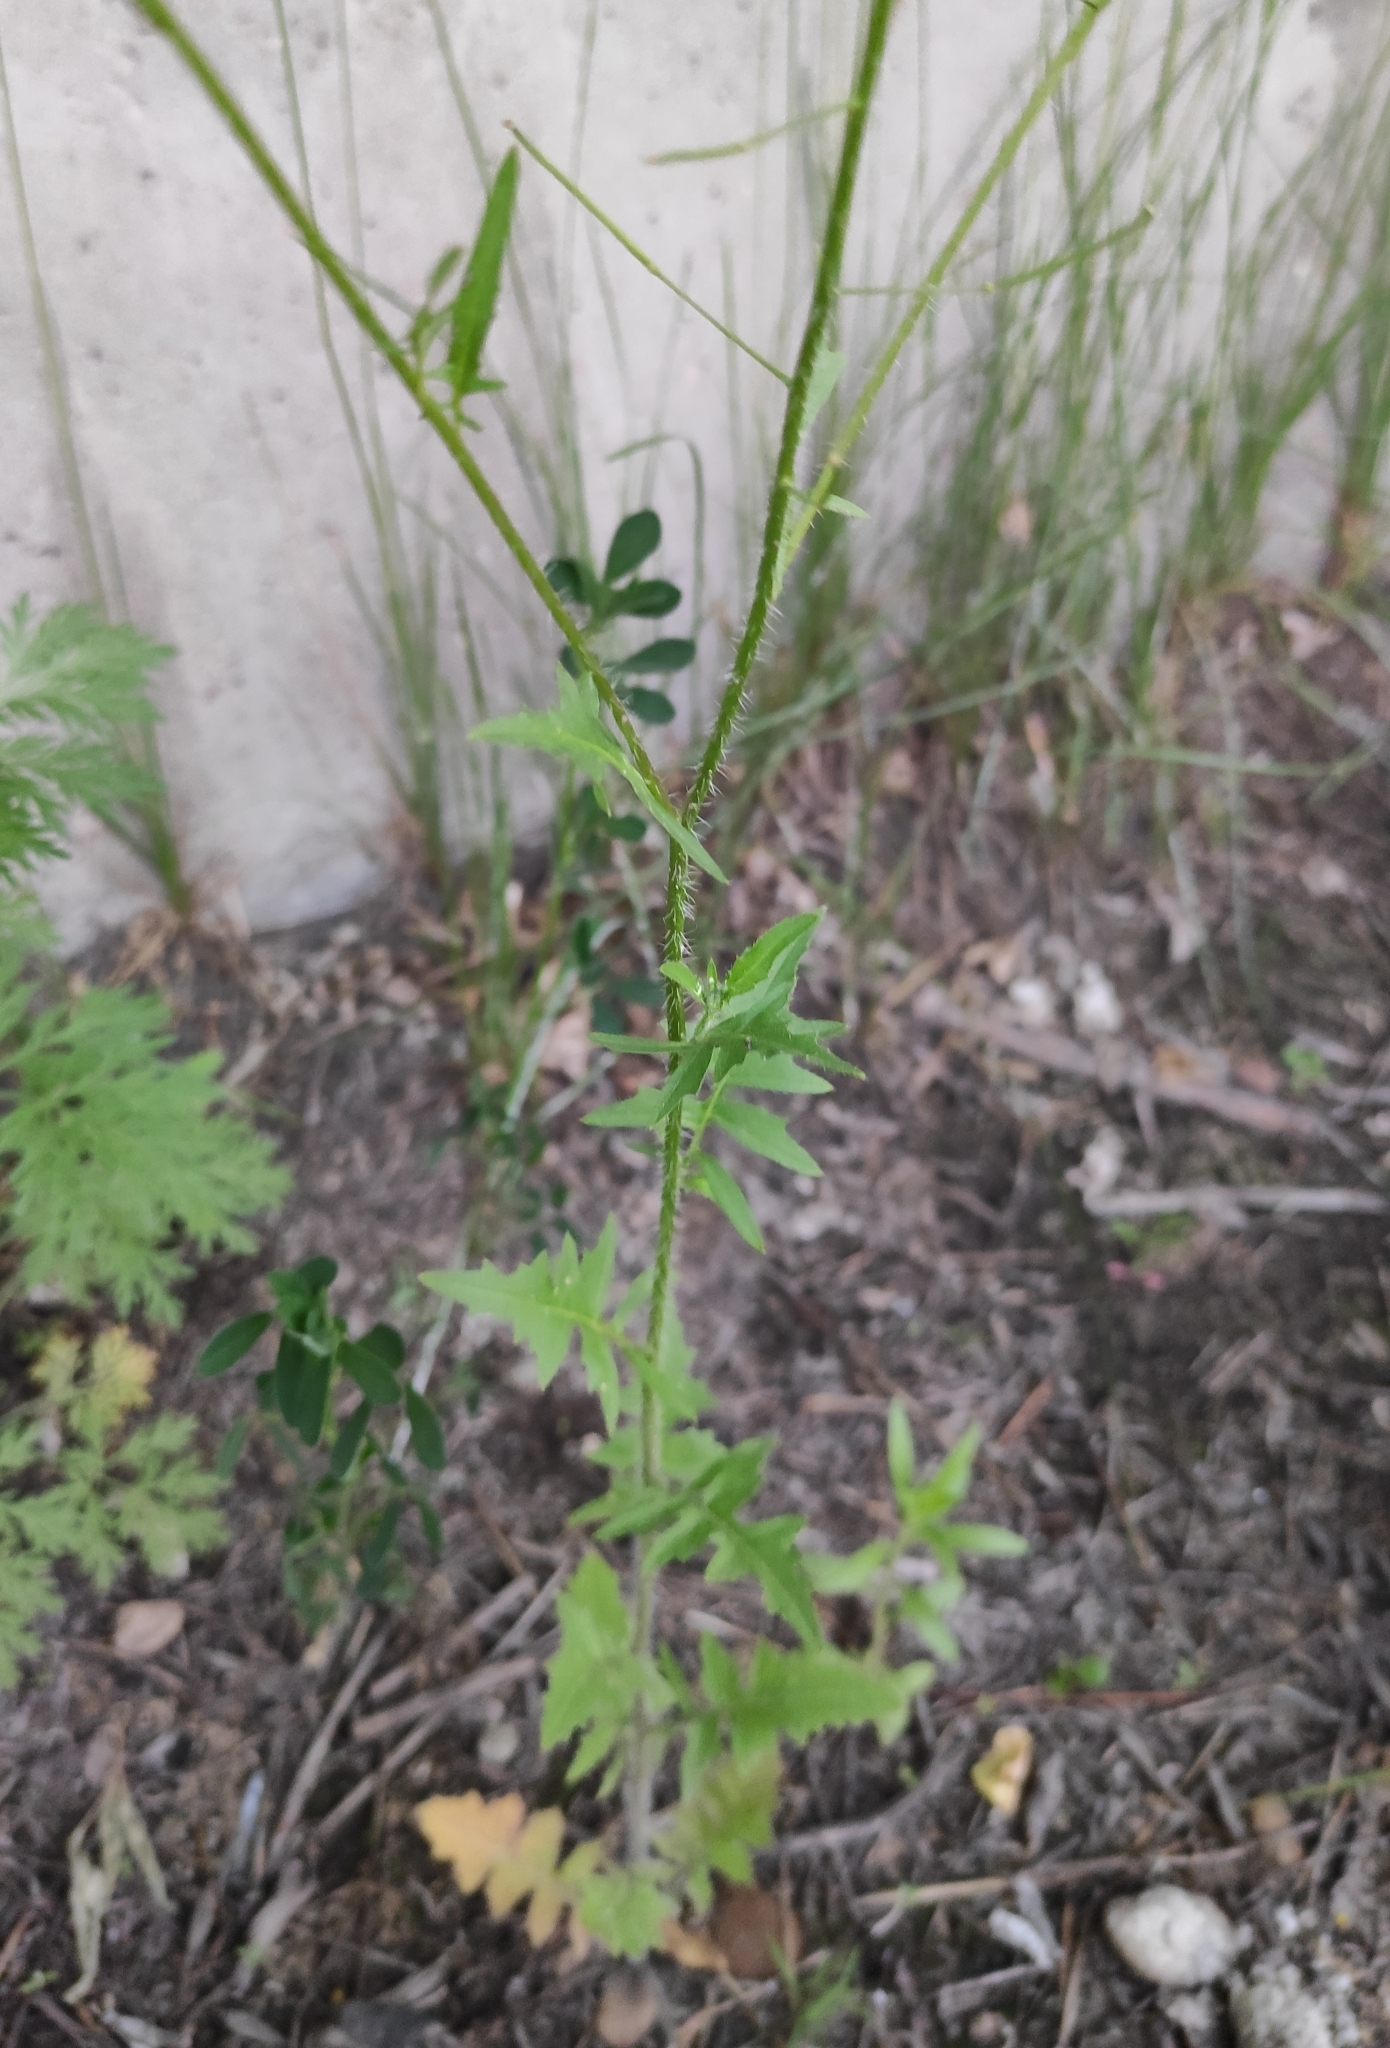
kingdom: Plantae
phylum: Tracheophyta
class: Magnoliopsida
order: Brassicales
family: Brassicaceae
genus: Sisymbrium
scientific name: Sisymbrium loeselii
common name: False london-rocket
